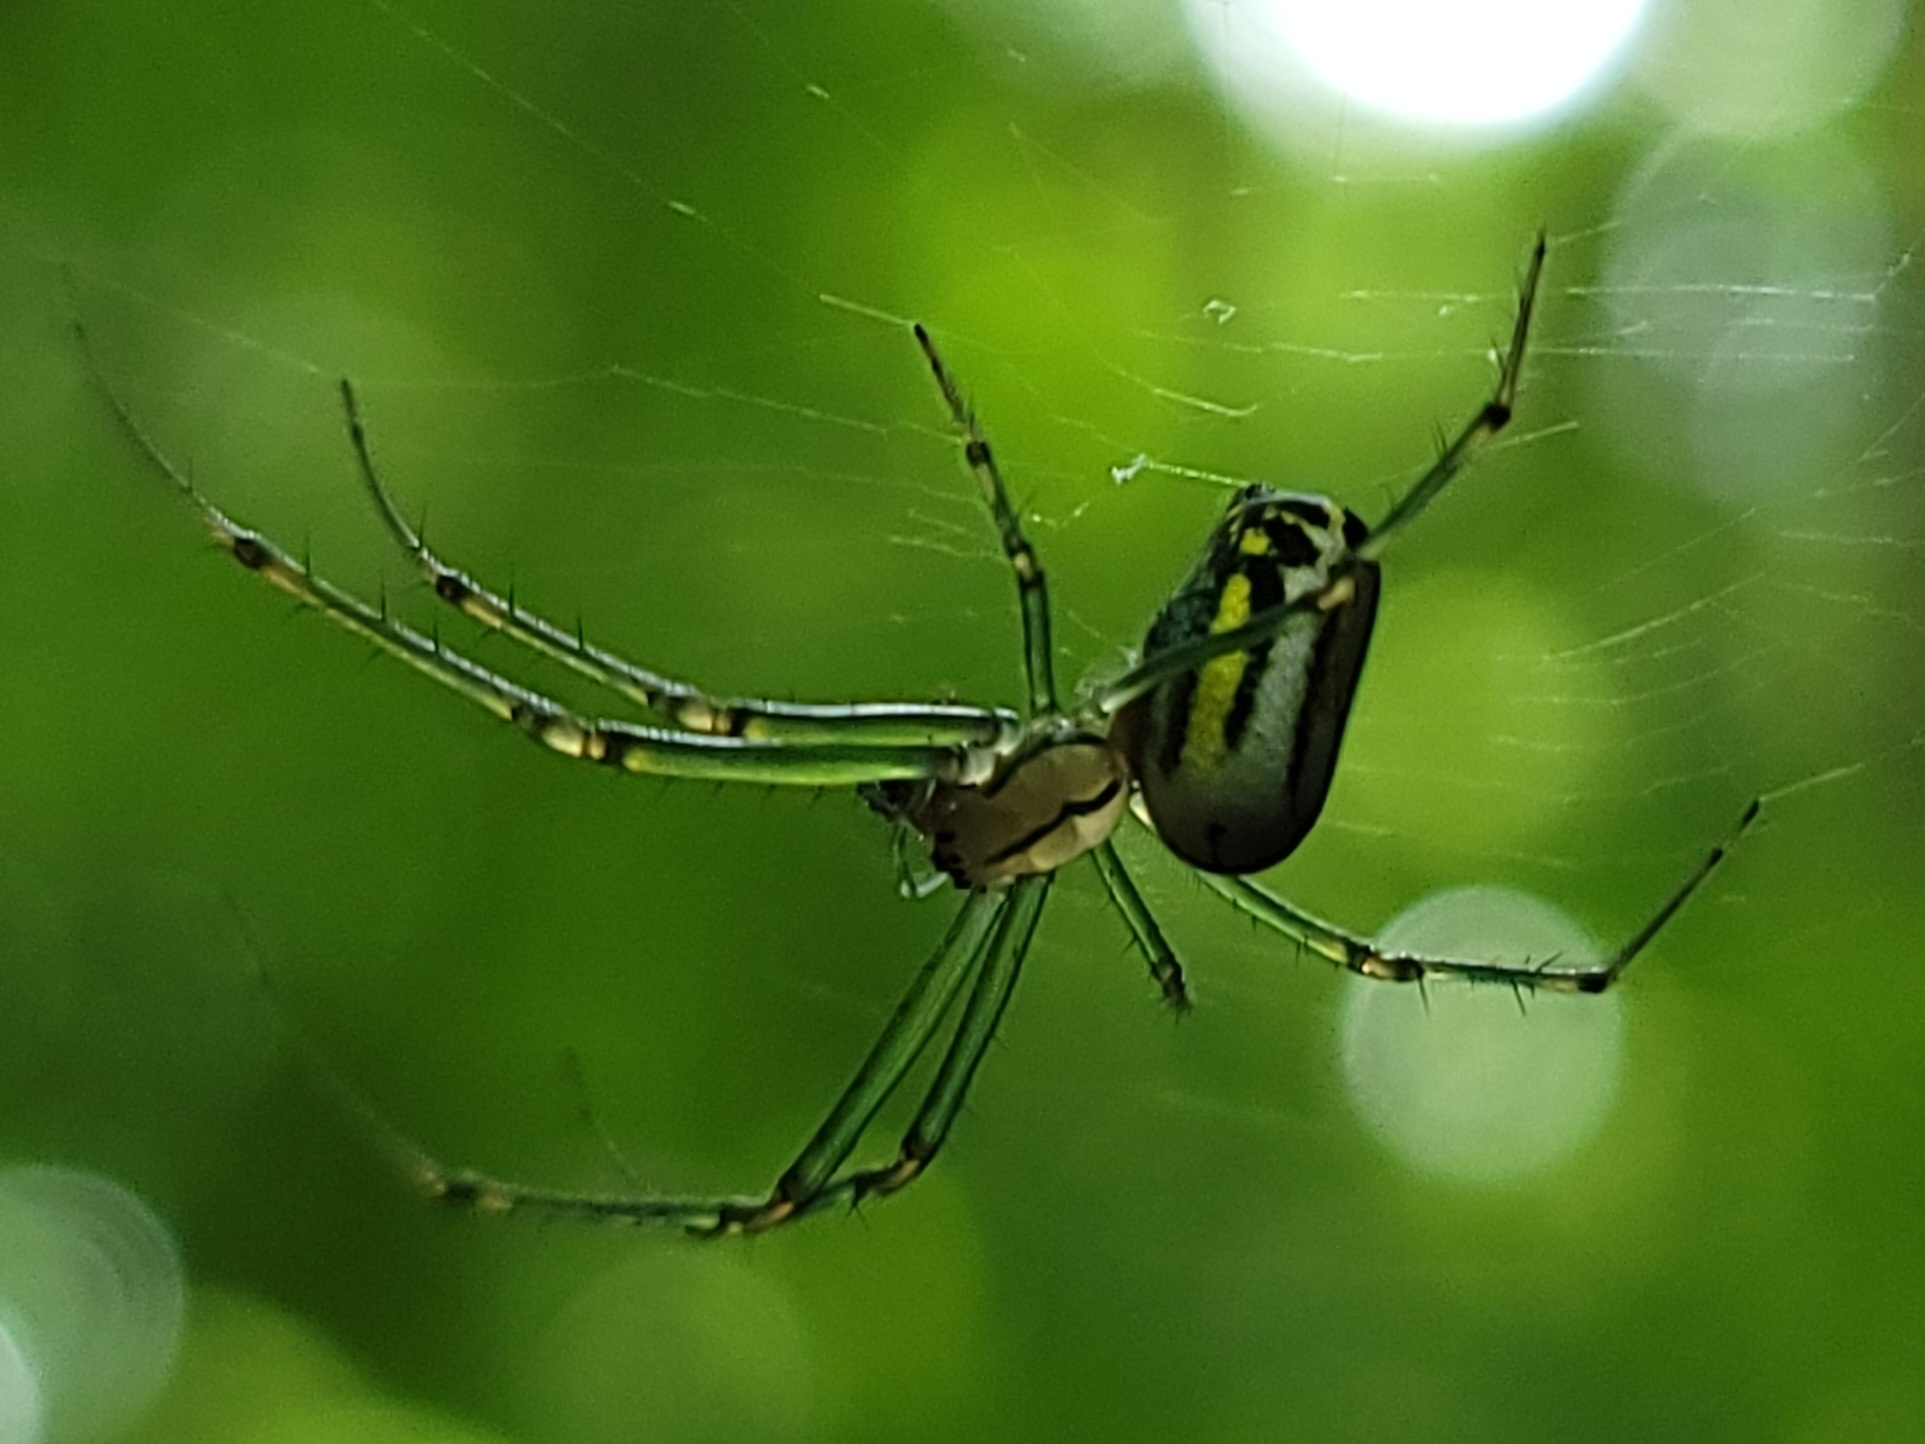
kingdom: Animalia
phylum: Arthropoda
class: Arachnida
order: Araneae
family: Tetragnathidae
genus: Leucauge
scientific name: Leucauge venusta
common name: Longjawed orb weavers
